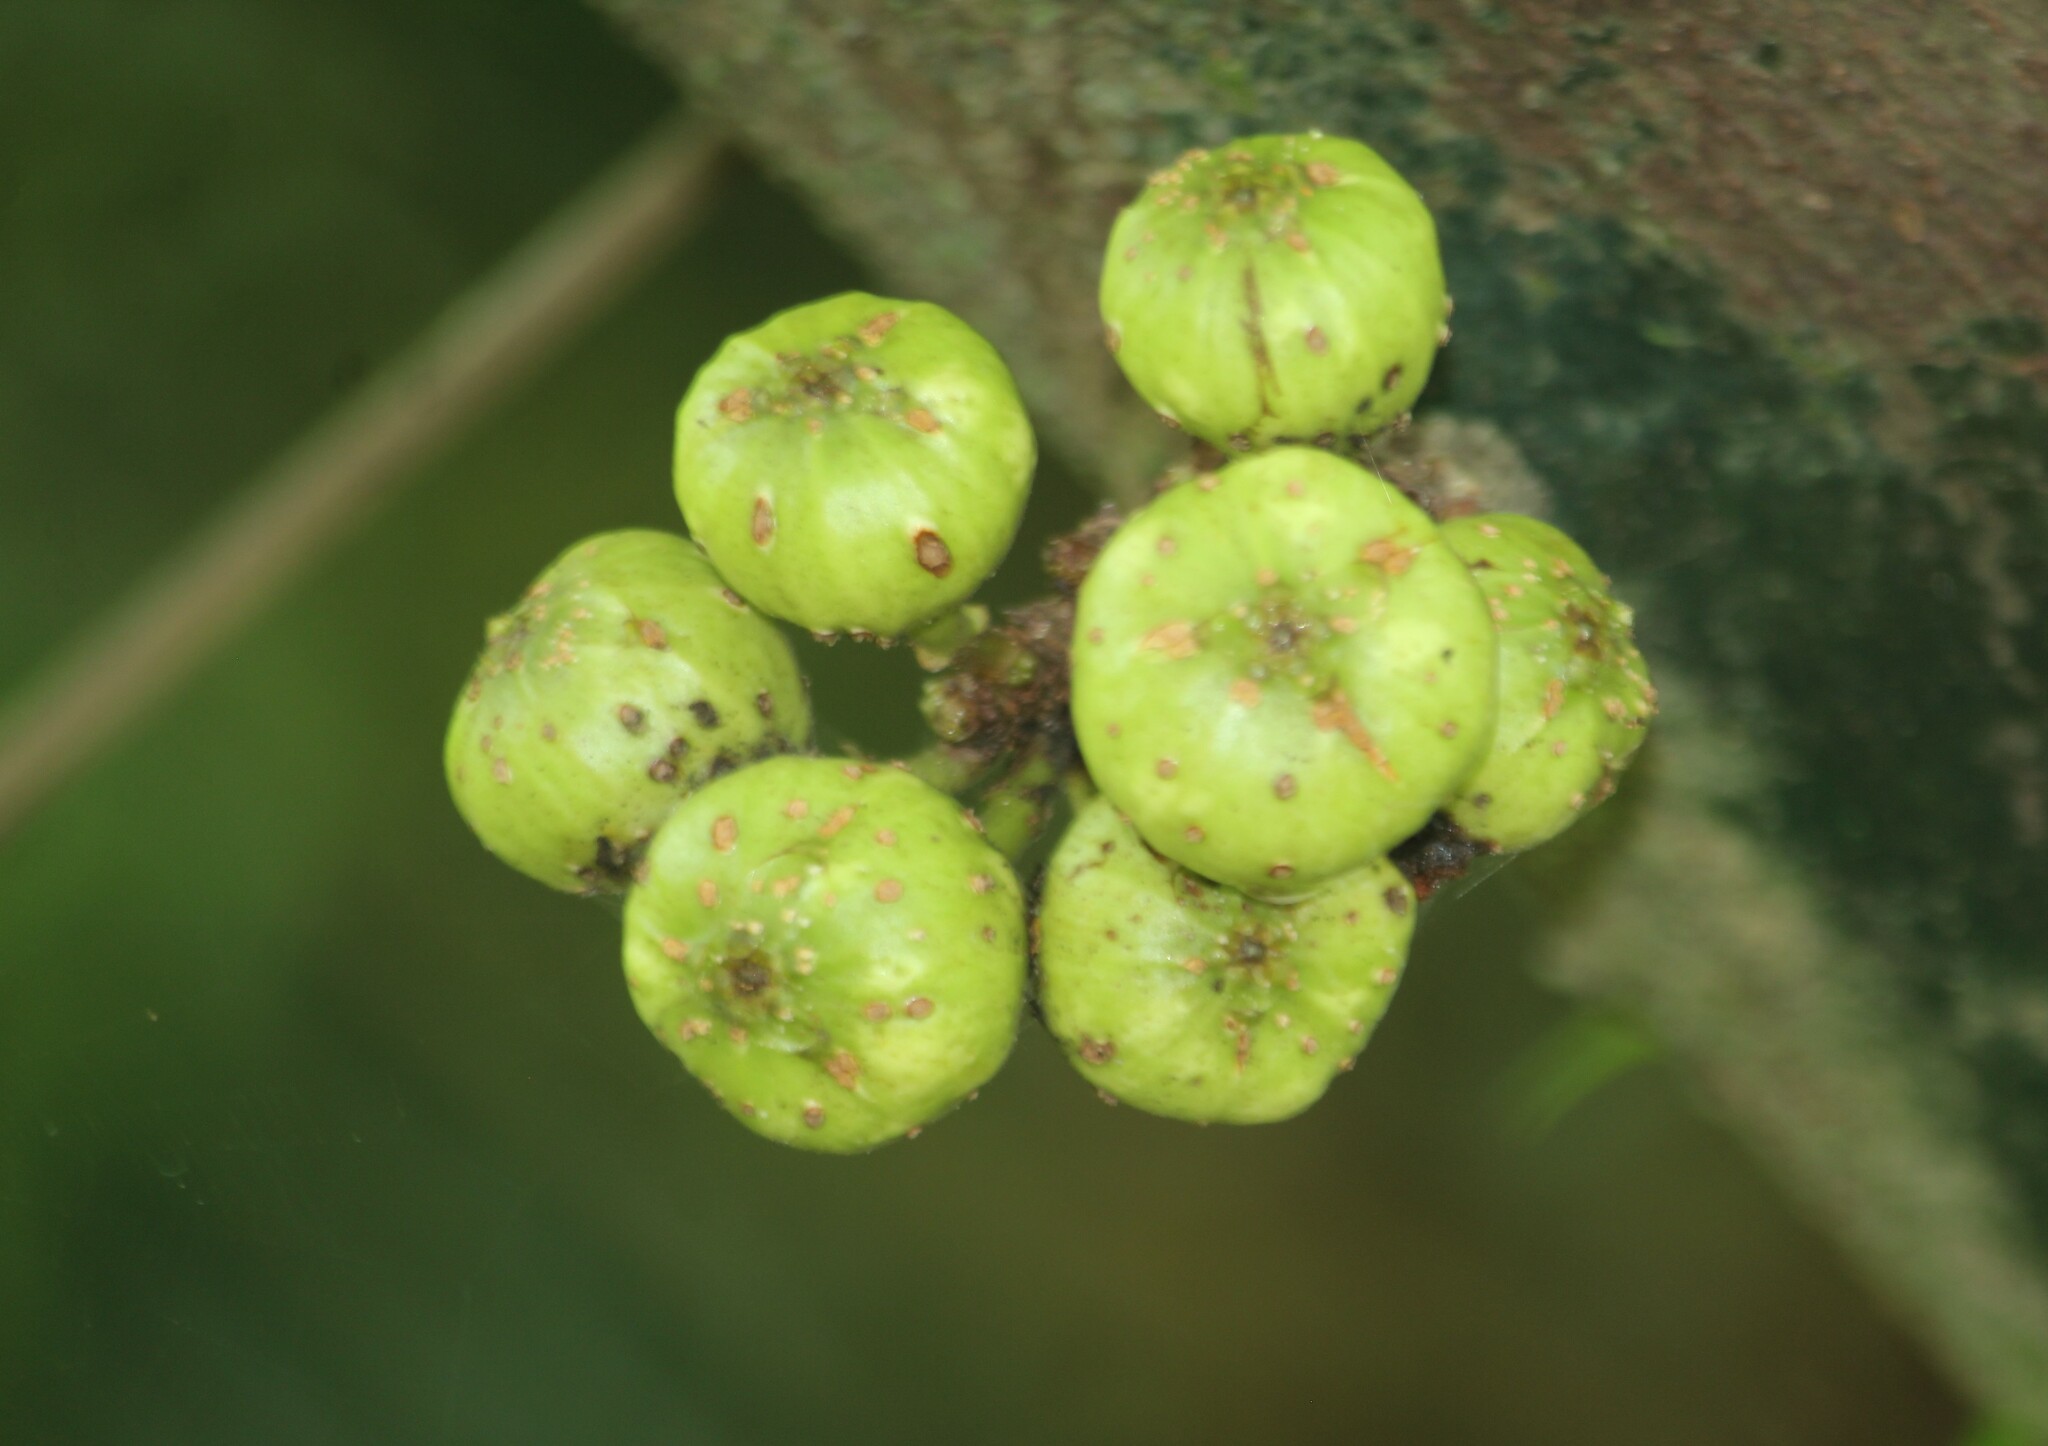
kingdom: Plantae
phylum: Tracheophyta
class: Magnoliopsida
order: Rosales
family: Moraceae
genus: Ficus
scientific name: Ficus hispida
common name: Hairy fig
